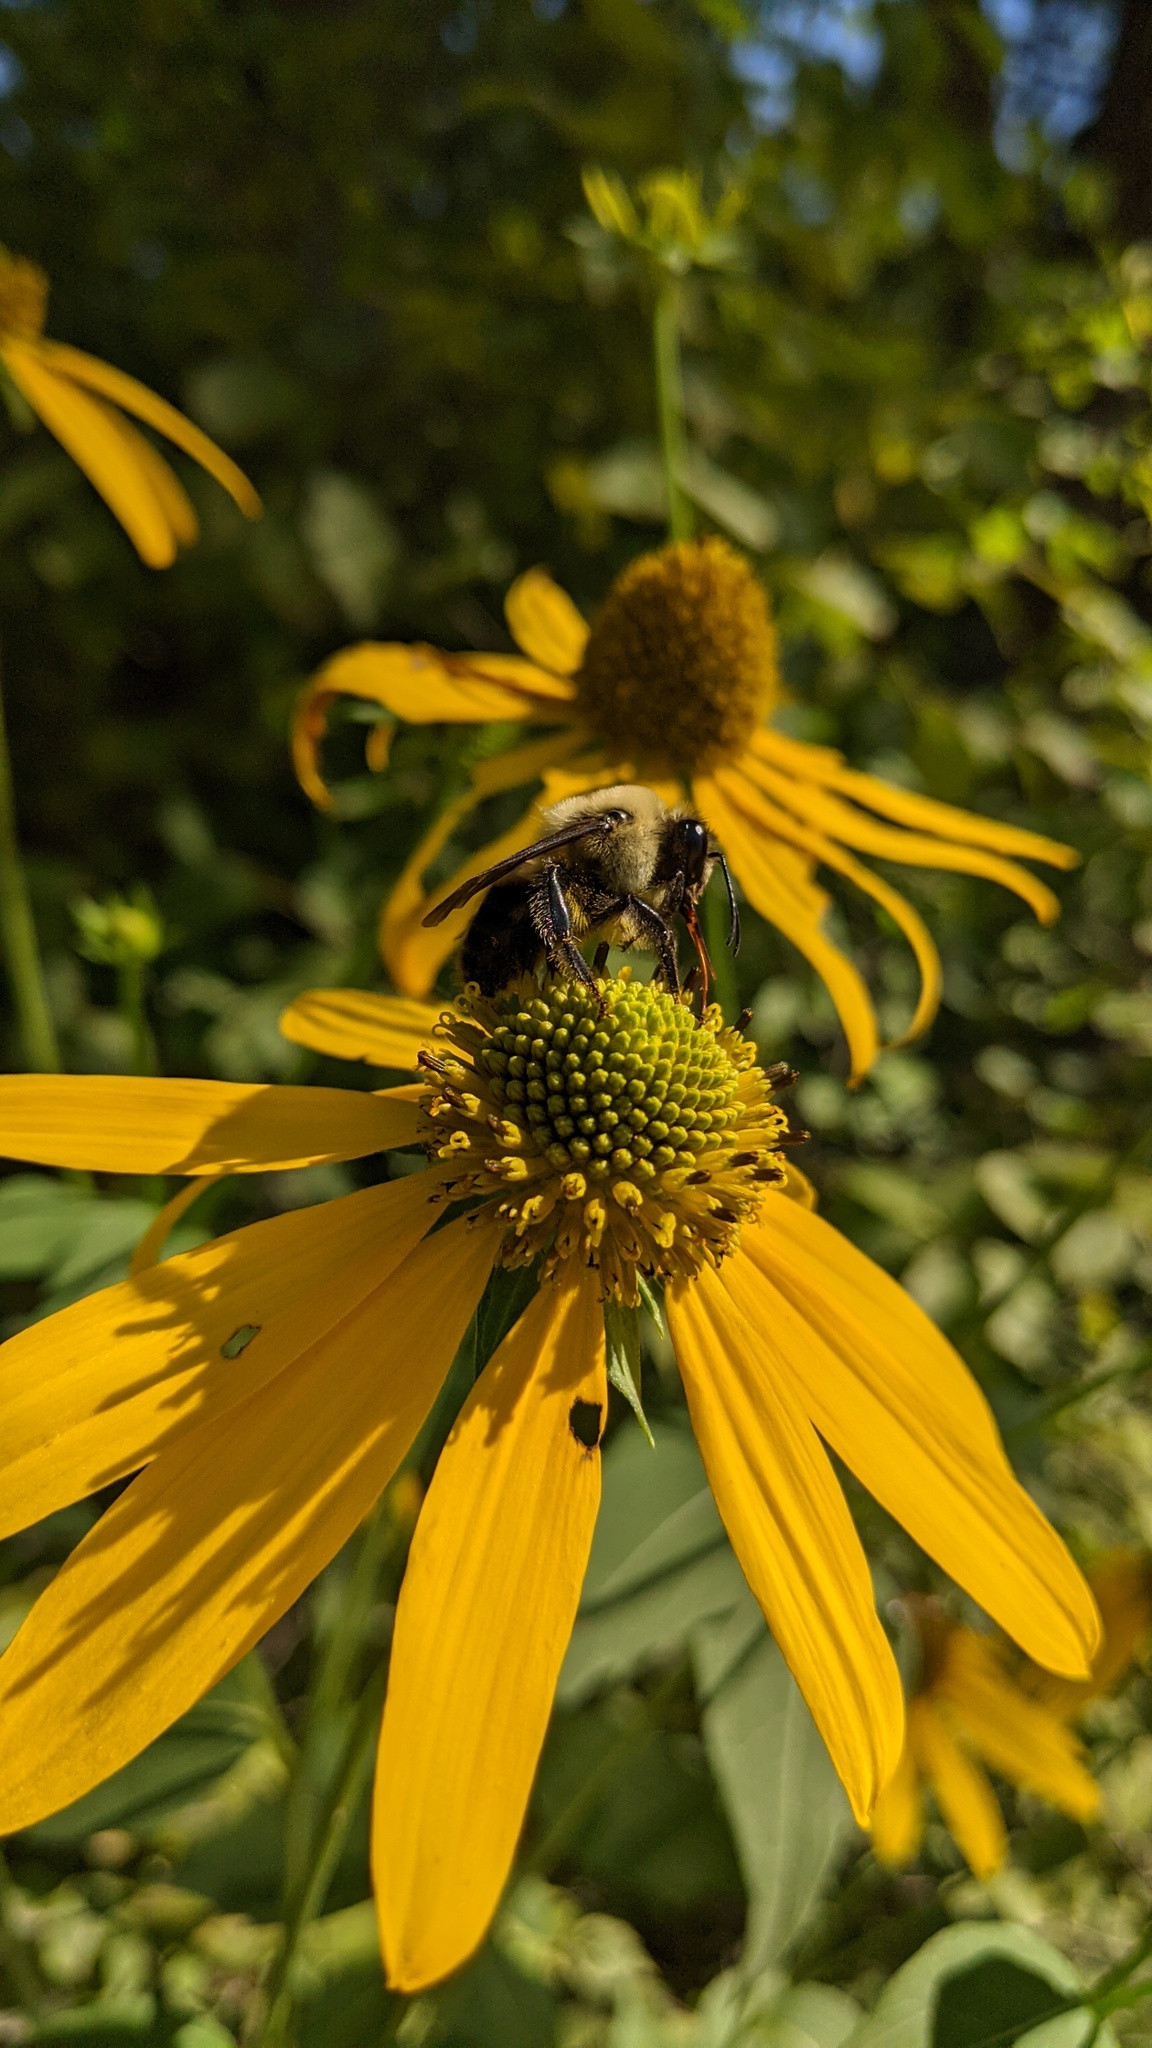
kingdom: Animalia
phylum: Arthropoda
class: Insecta
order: Hymenoptera
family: Apidae
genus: Bombus
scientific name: Bombus griseocollis
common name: Brown-belted bumble bee
